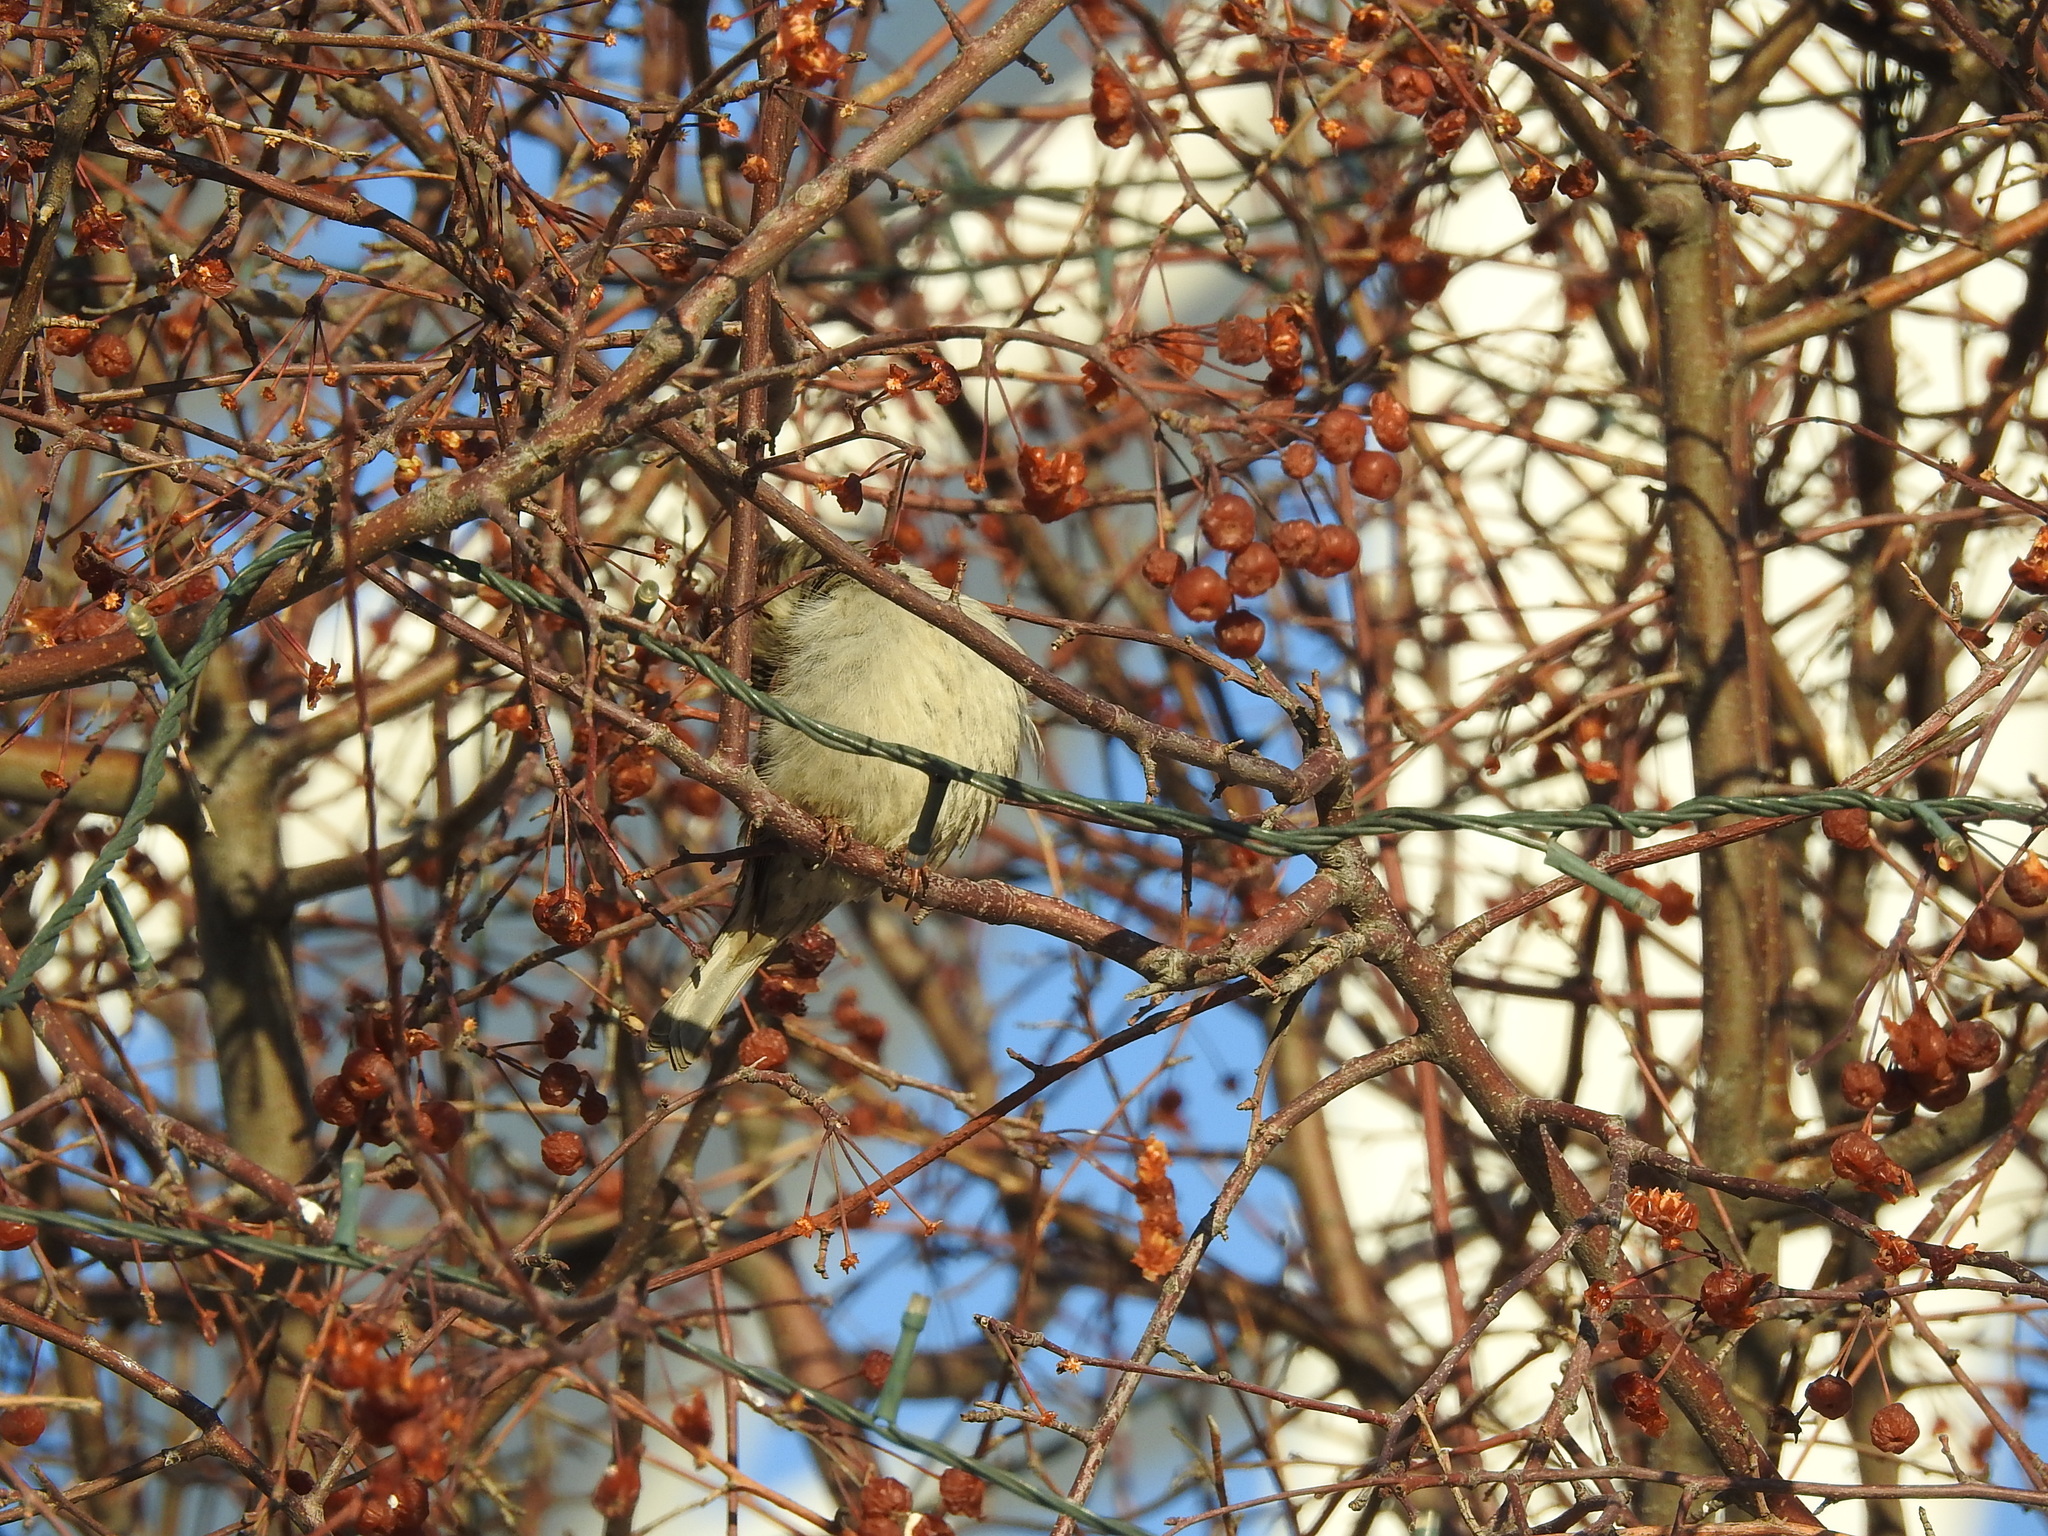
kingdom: Animalia
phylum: Chordata
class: Aves
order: Passeriformes
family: Passeridae
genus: Passer
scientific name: Passer domesticus
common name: House sparrow
